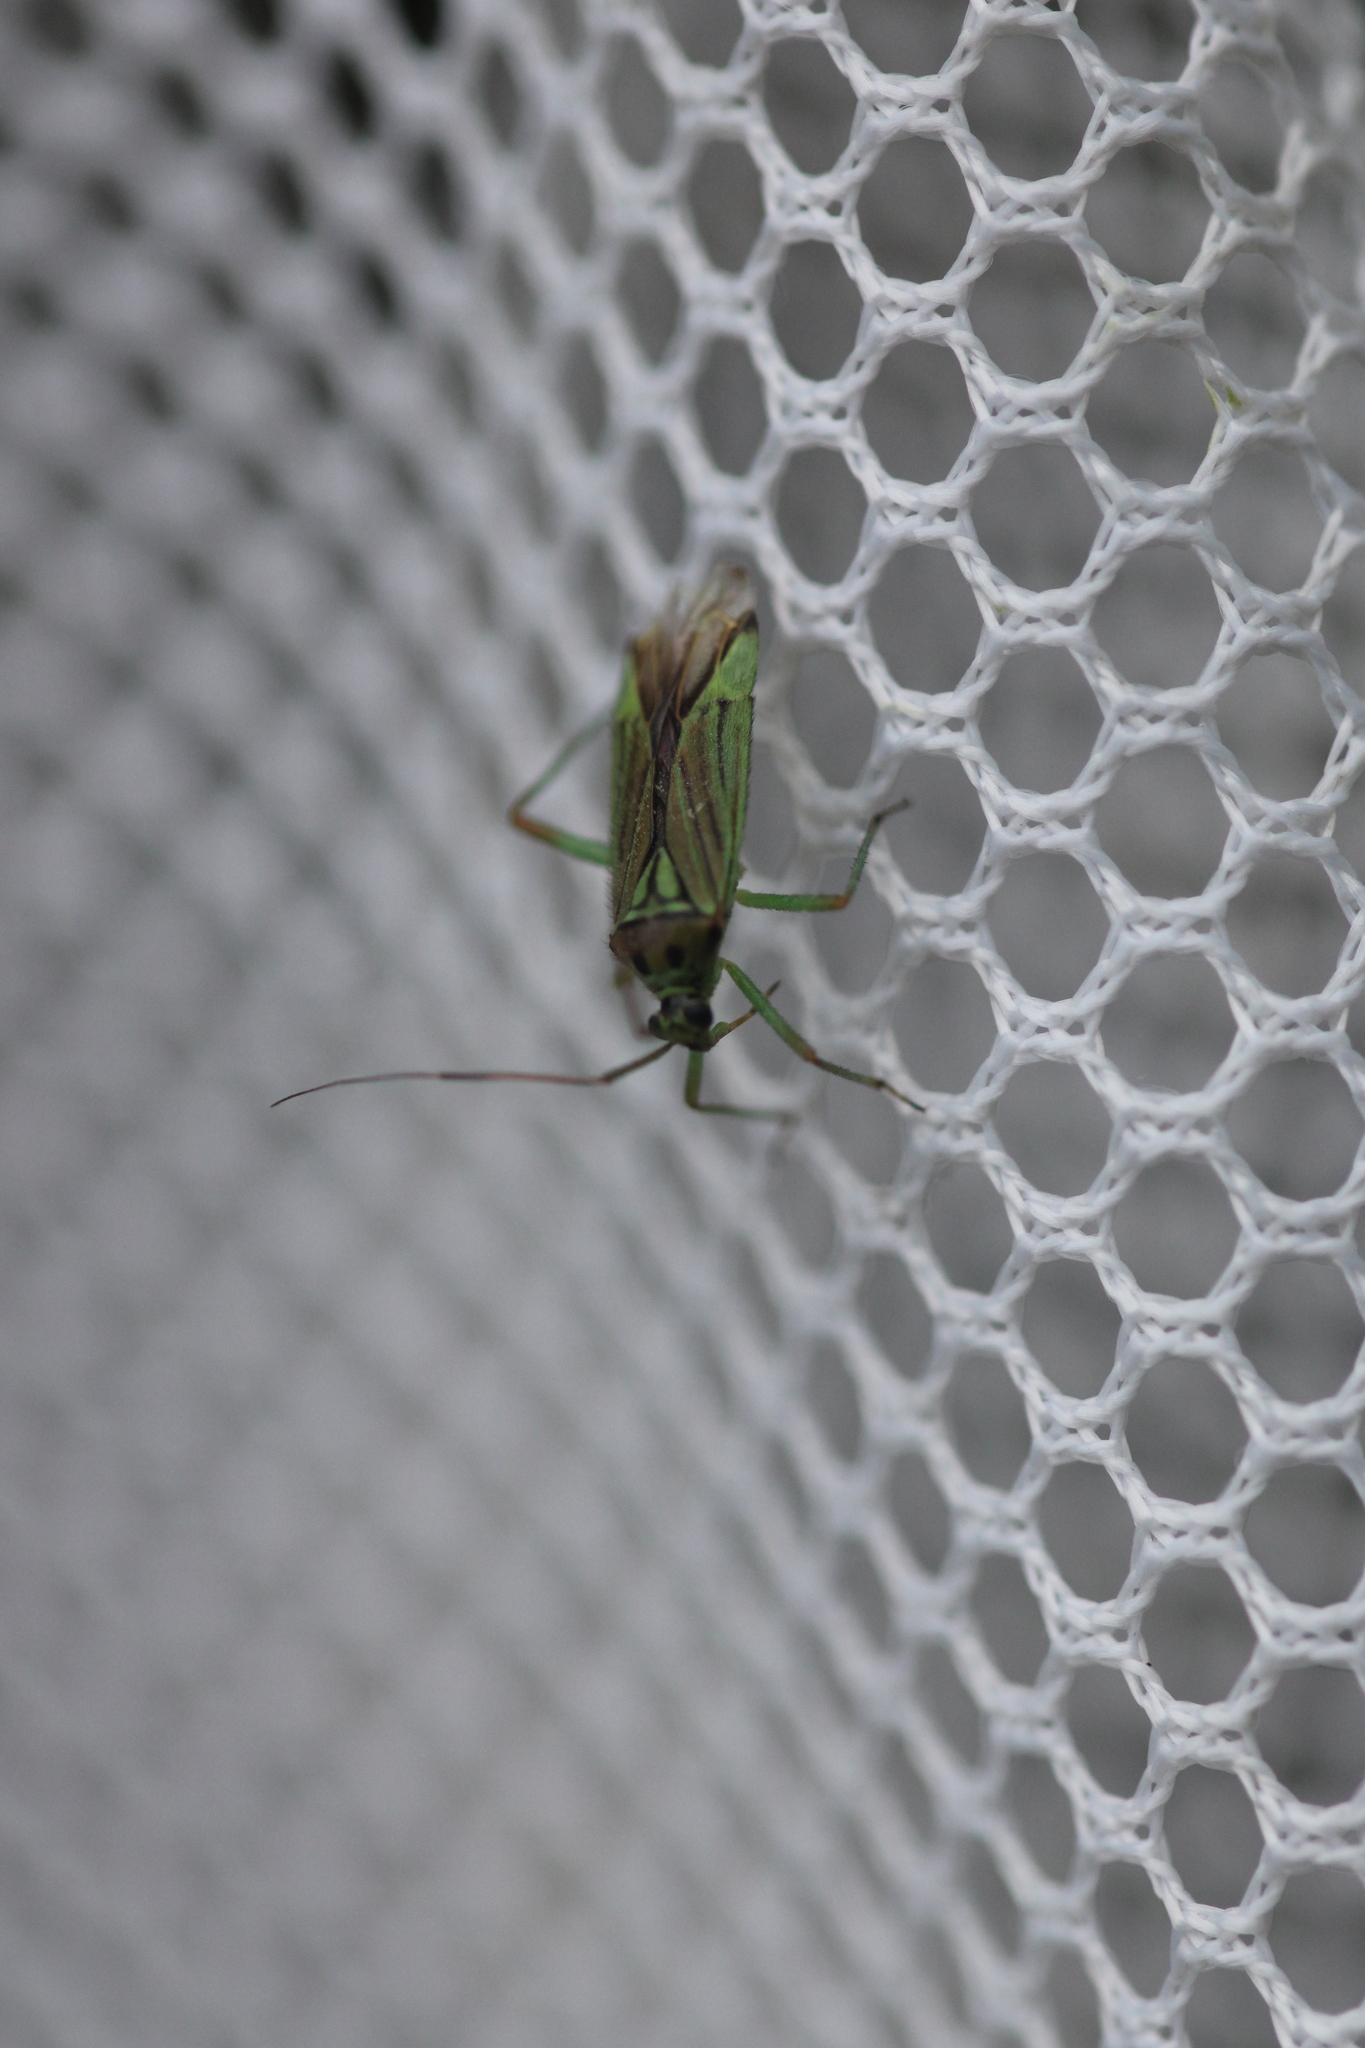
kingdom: Animalia
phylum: Arthropoda
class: Insecta
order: Hemiptera
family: Miridae
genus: Mermitelocerus
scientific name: Mermitelocerus schmidtii
